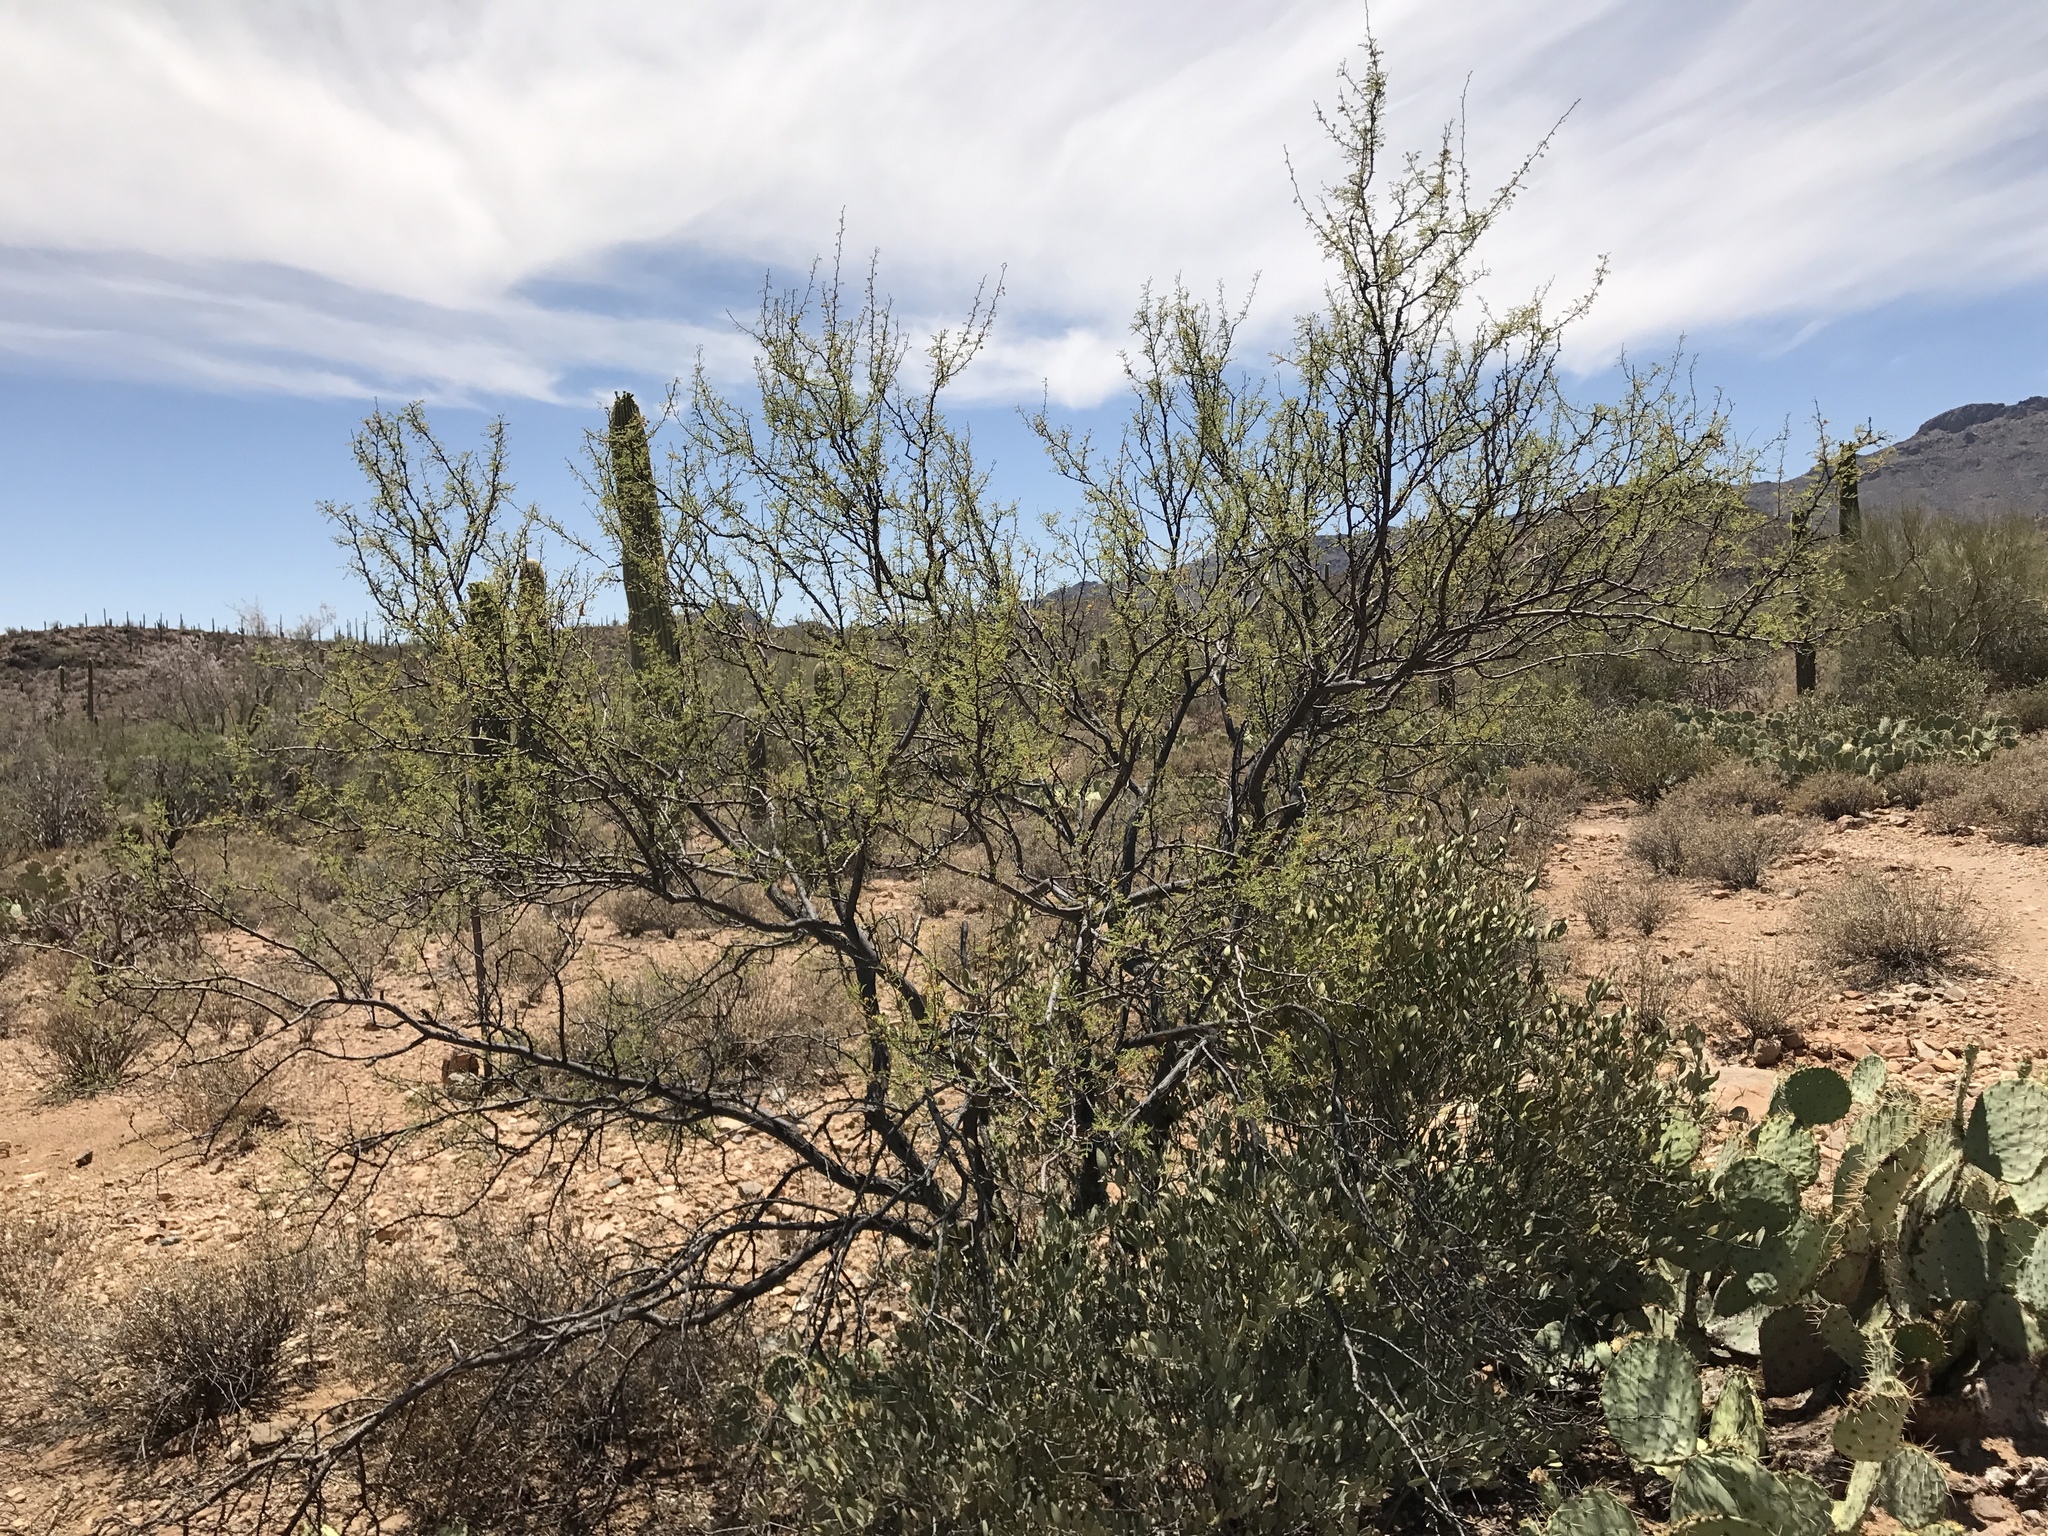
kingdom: Plantae
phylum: Tracheophyta
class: Magnoliopsida
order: Fabales
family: Fabaceae
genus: Vachellia
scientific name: Vachellia constricta
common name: Mescat acacia
